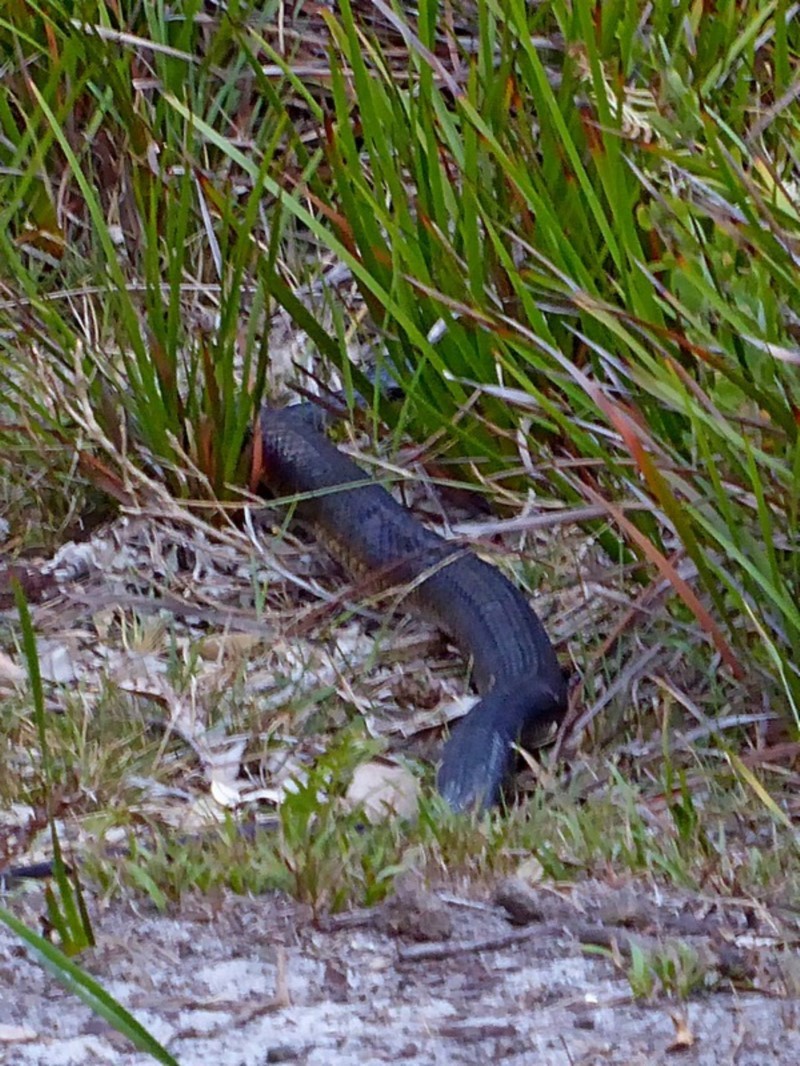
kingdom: Animalia
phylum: Chordata
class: Squamata
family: Elapidae
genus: Notechis
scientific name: Notechis scutatus
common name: Mainland tiger snake
